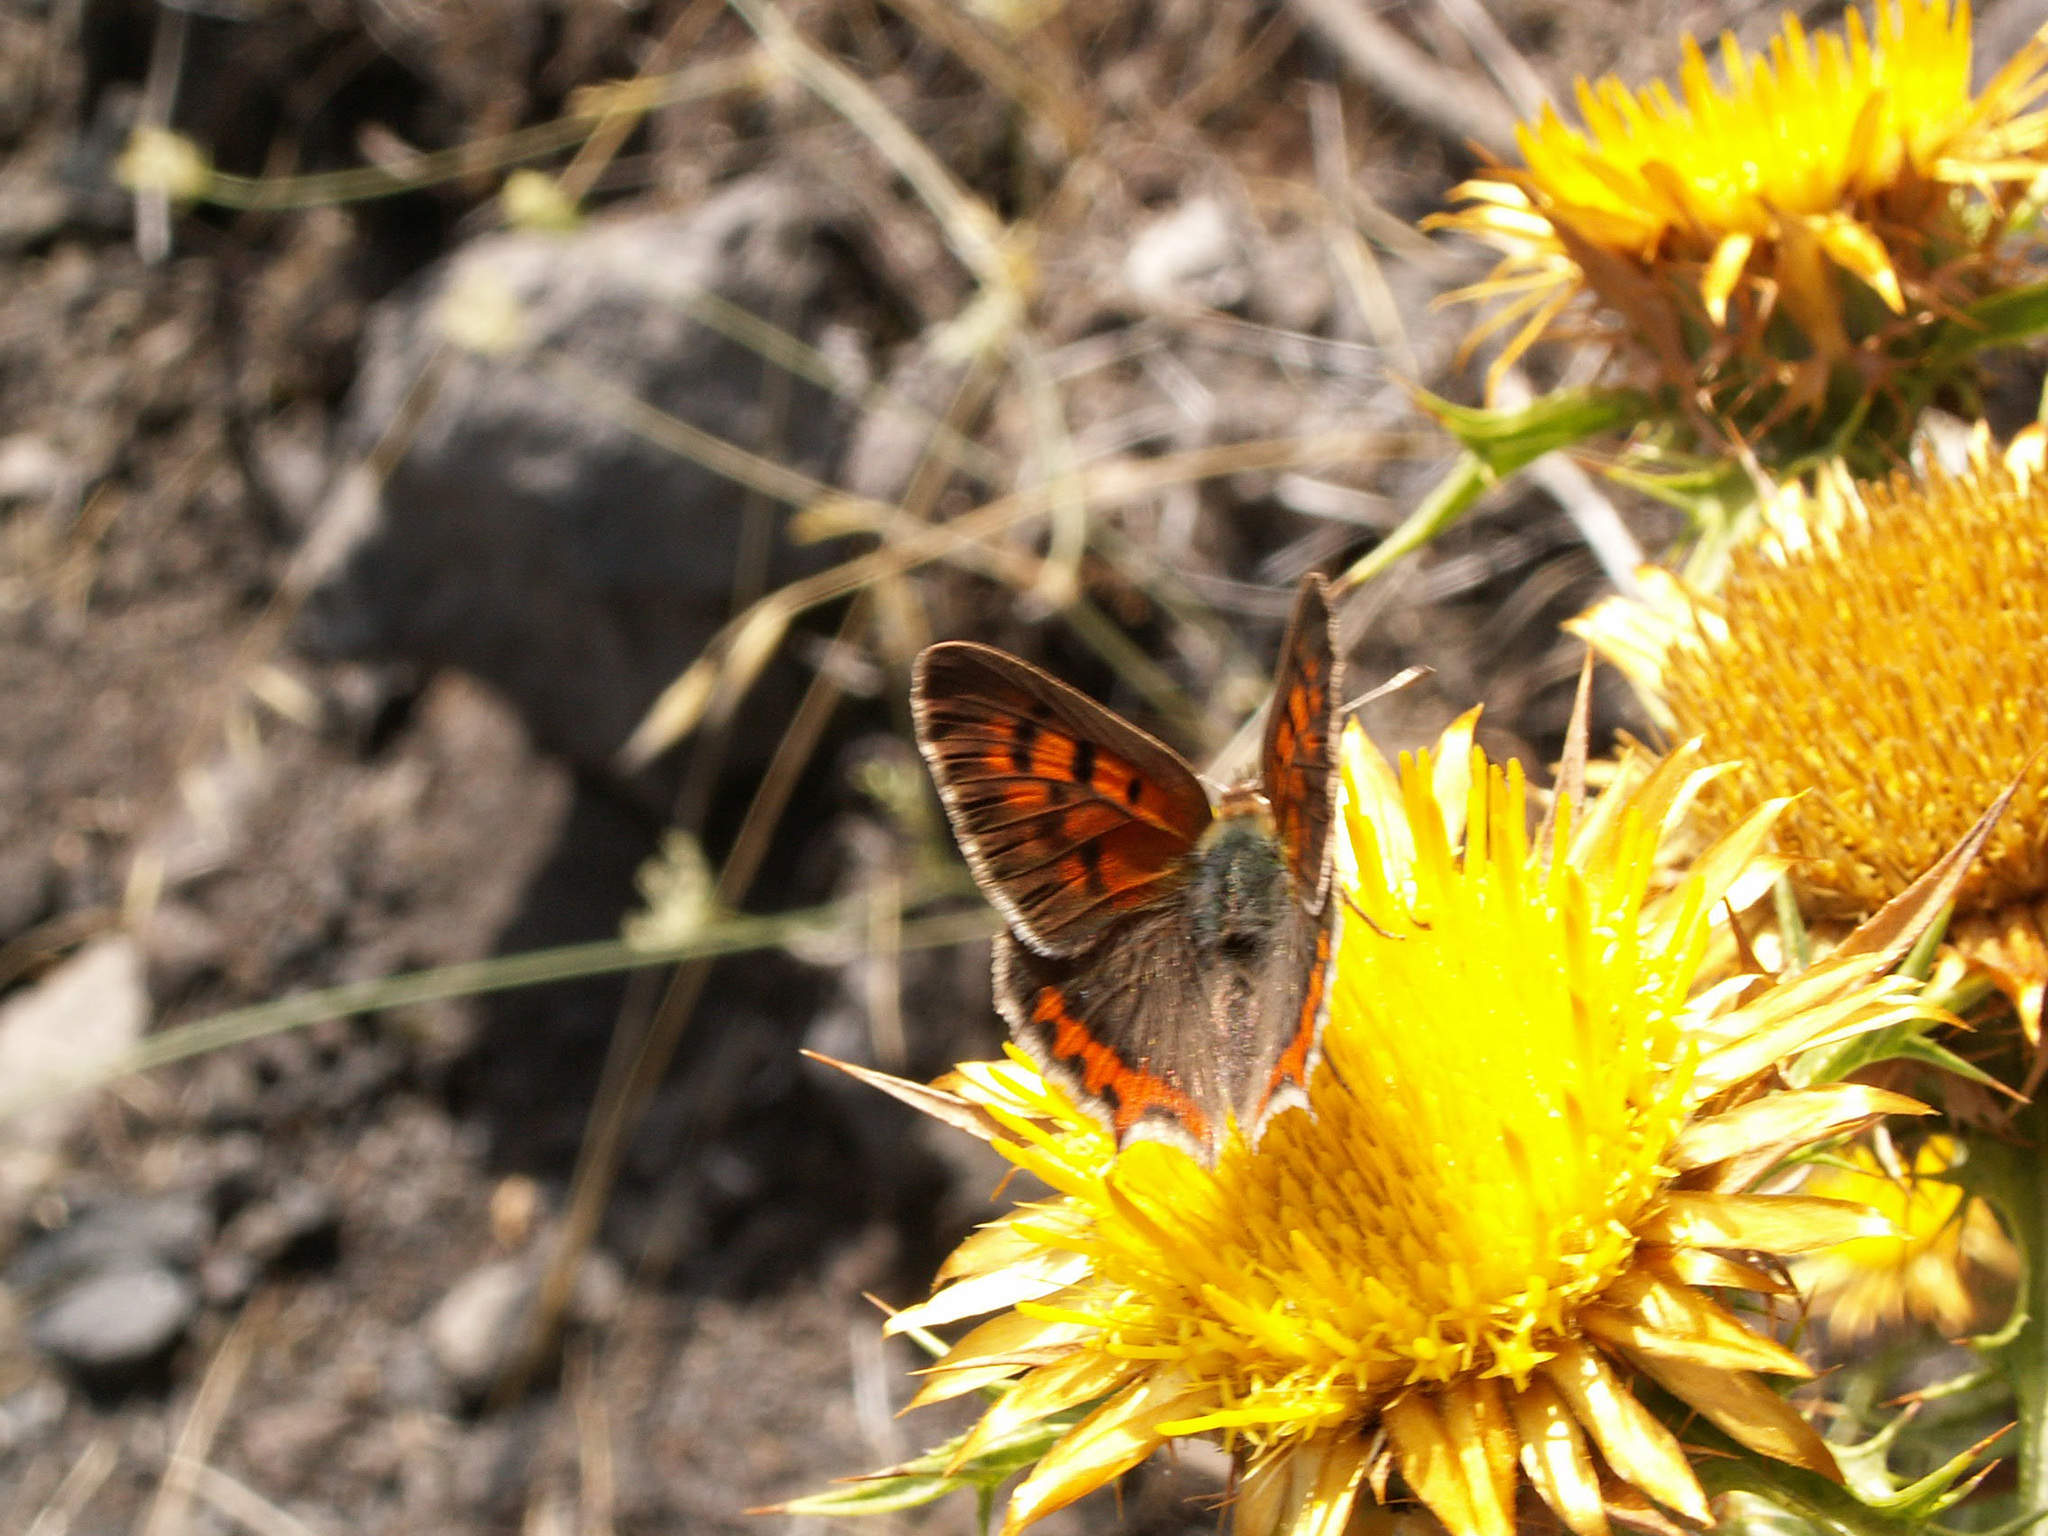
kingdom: Animalia
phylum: Arthropoda
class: Insecta
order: Lepidoptera
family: Lycaenidae
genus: Lycaena
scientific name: Lycaena phlaeas
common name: Small copper
